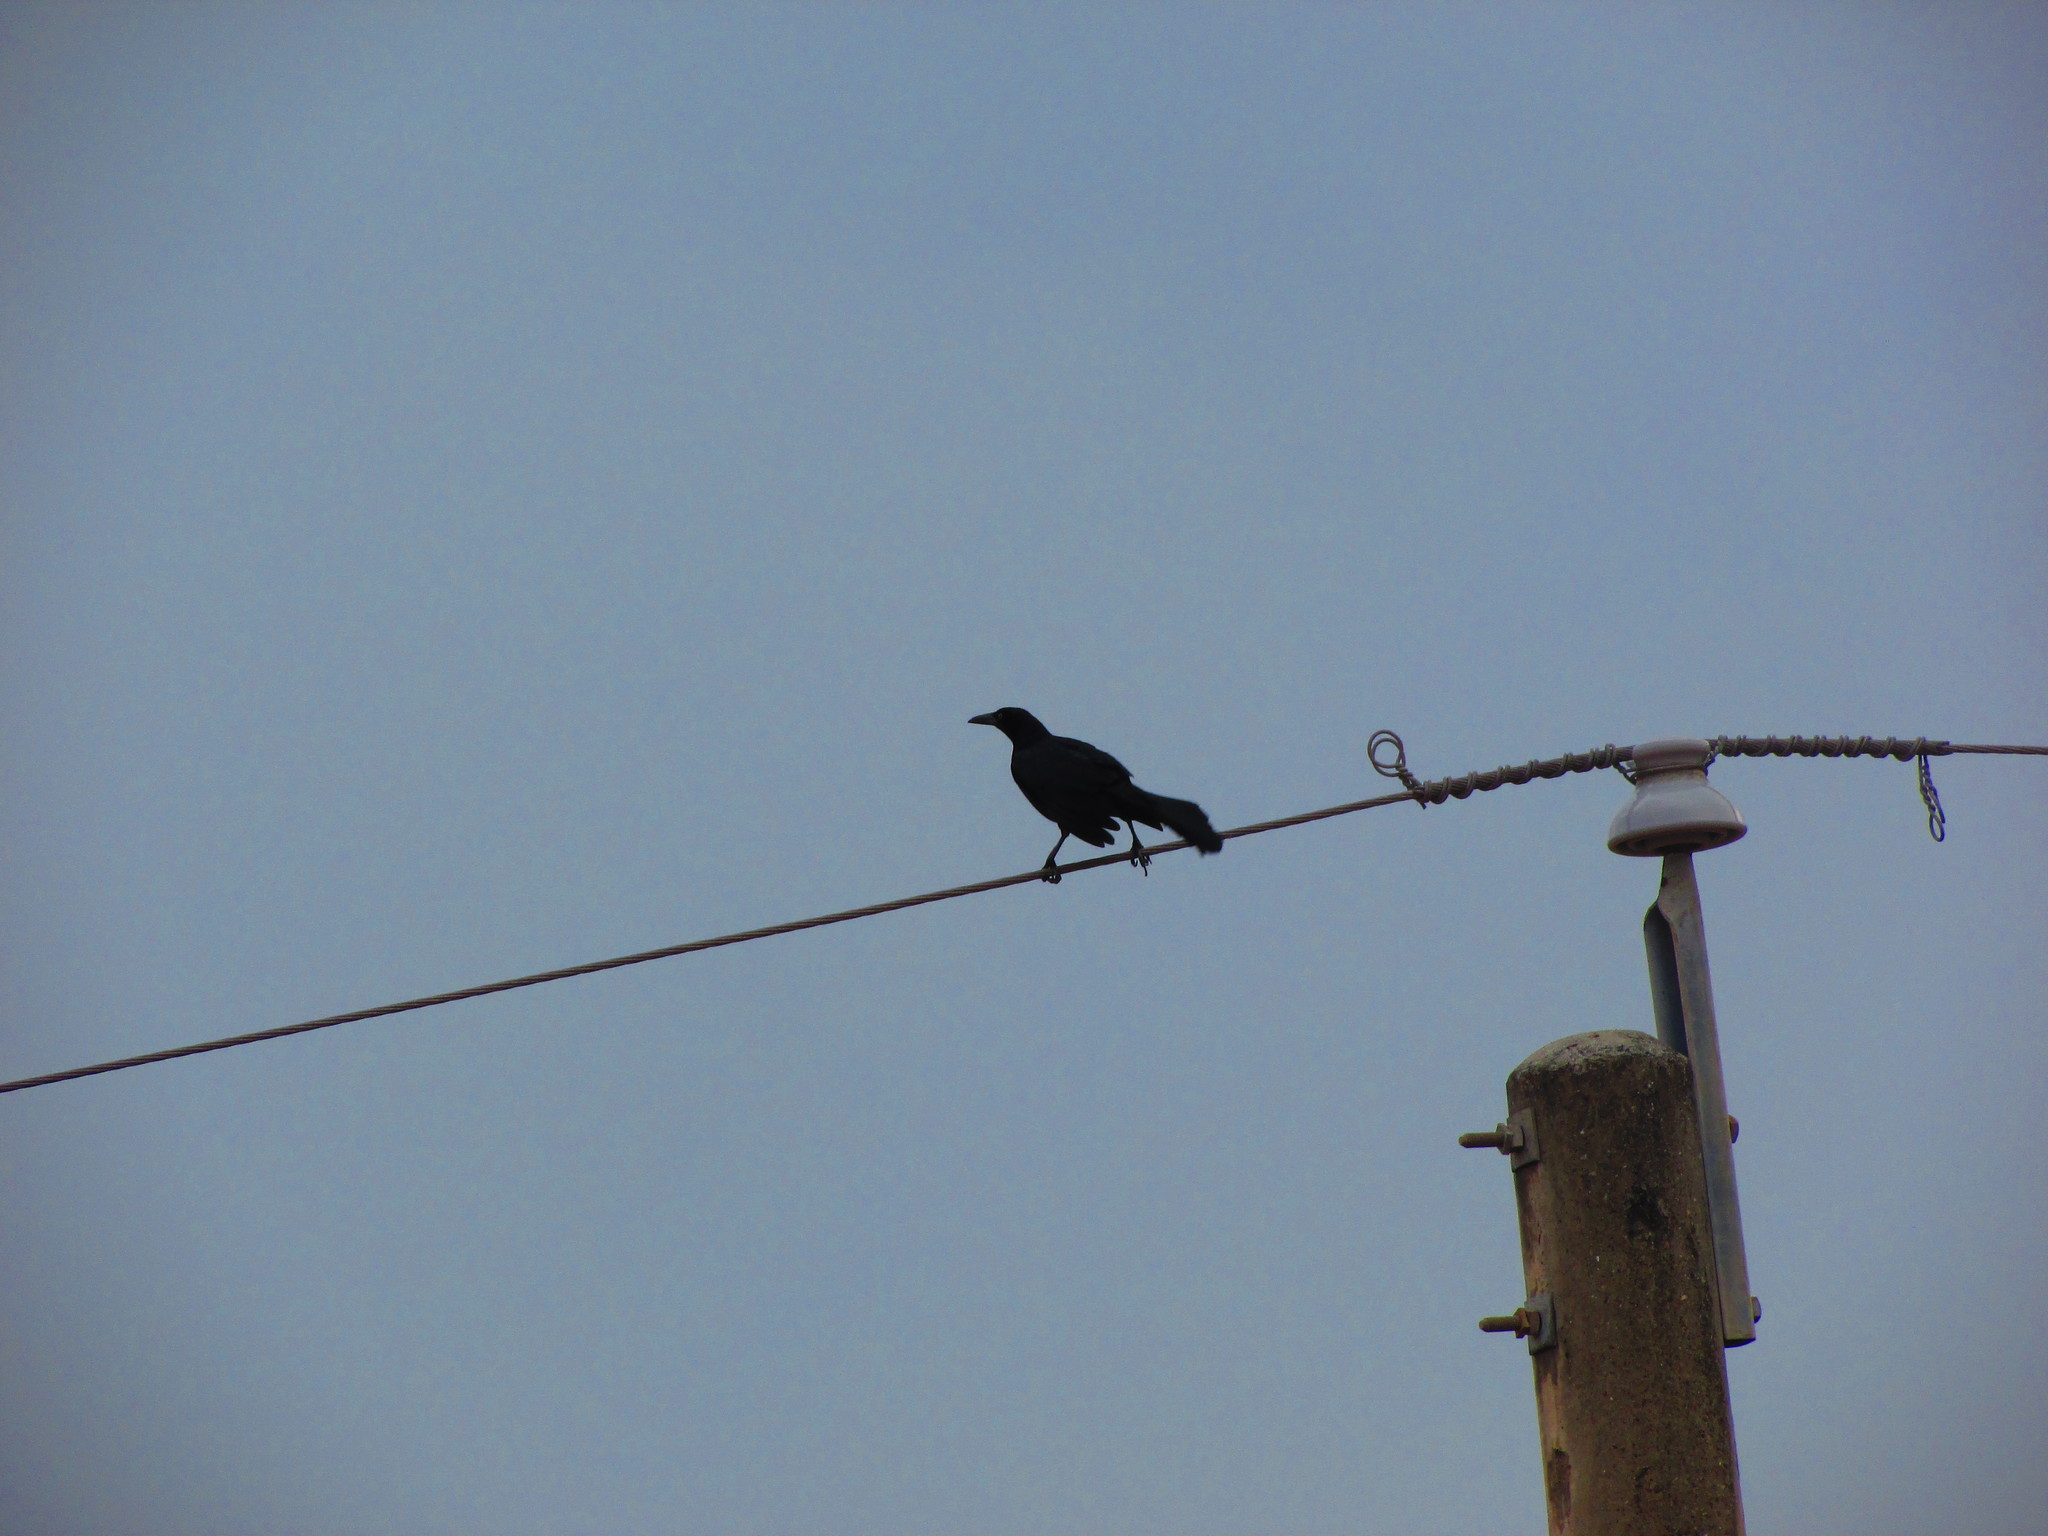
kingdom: Animalia
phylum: Chordata
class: Aves
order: Passeriformes
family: Icteridae
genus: Quiscalus
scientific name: Quiscalus mexicanus
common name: Great-tailed grackle
